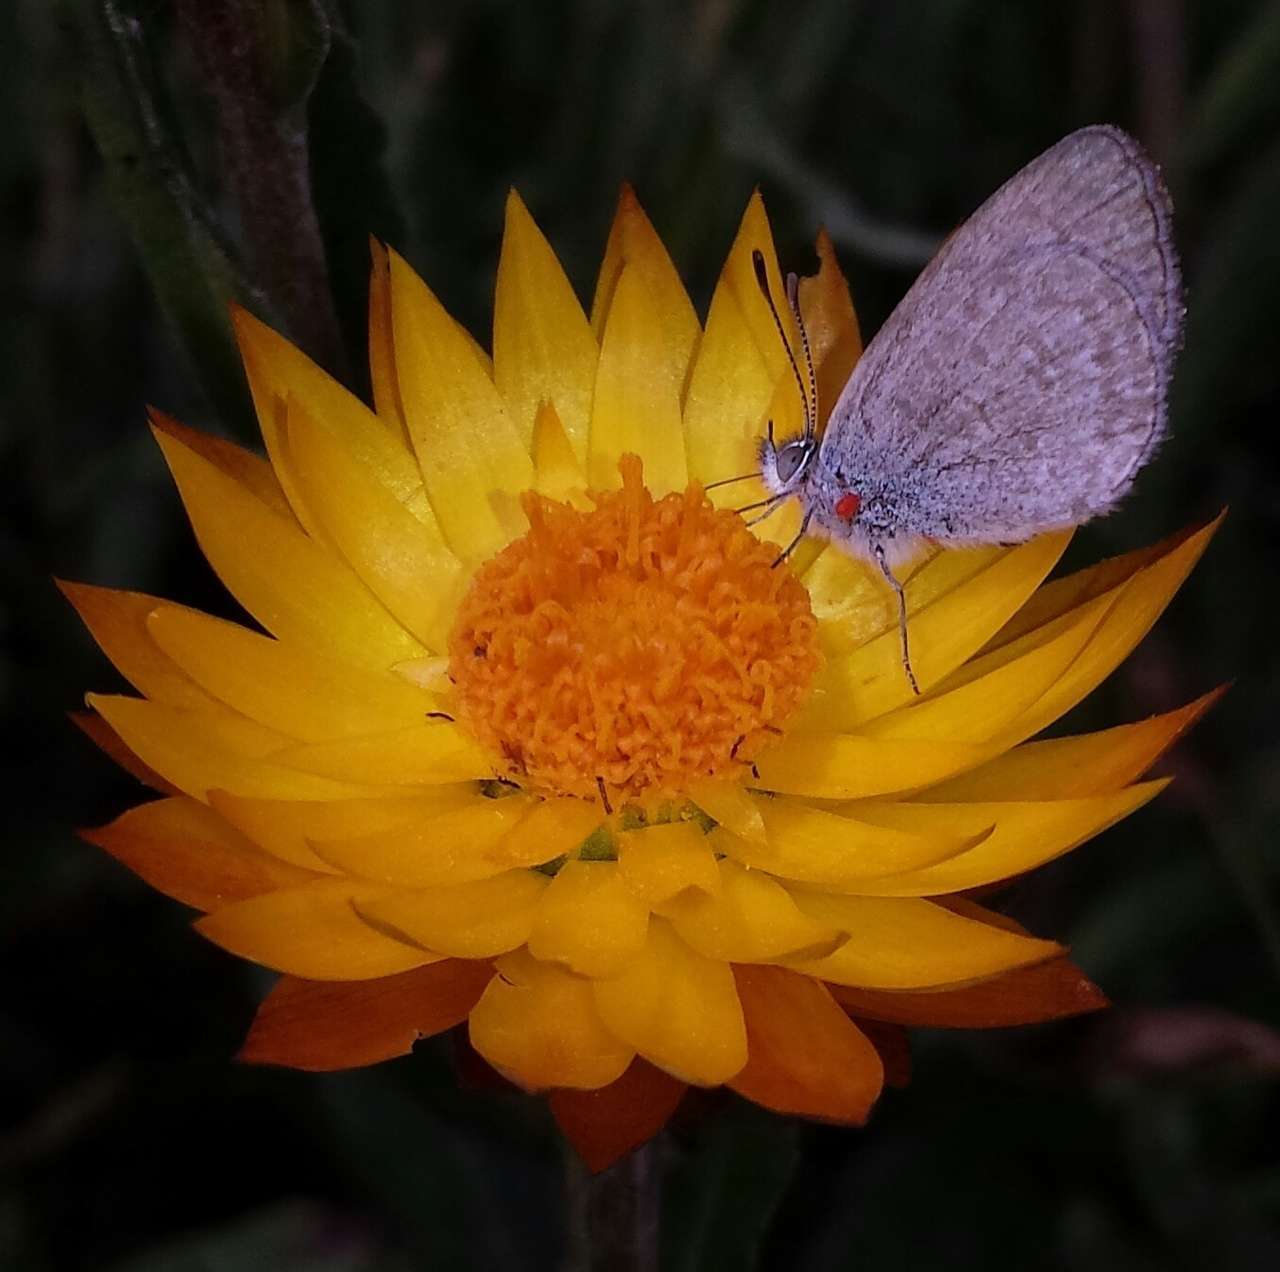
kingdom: Animalia
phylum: Arthropoda
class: Insecta
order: Lepidoptera
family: Lycaenidae
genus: Zizina
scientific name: Zizina labradus
